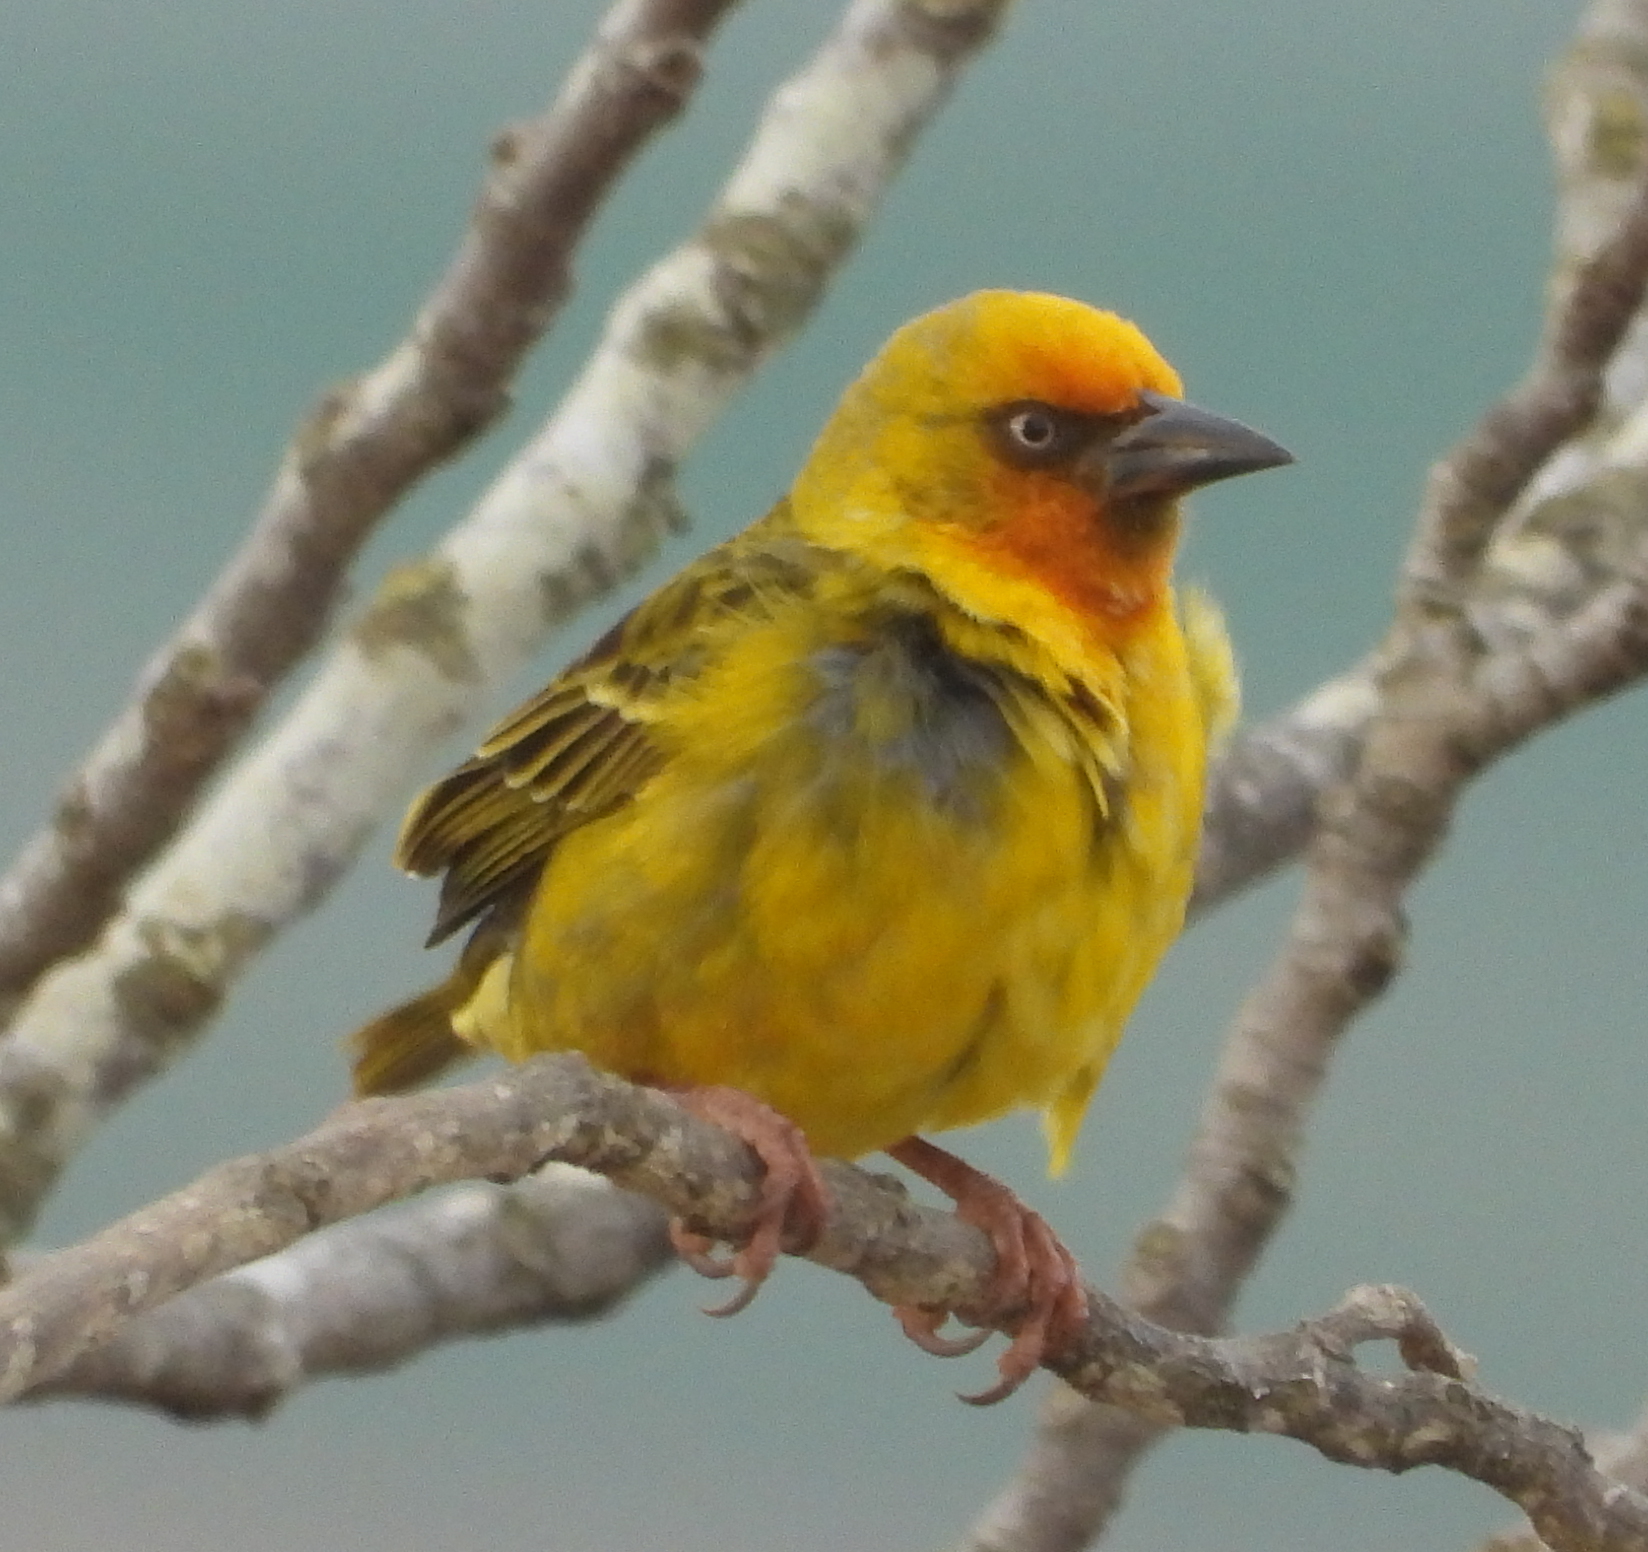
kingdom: Animalia
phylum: Chordata
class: Aves
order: Passeriformes
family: Ploceidae
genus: Ploceus
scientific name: Ploceus capensis
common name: Cape weaver
